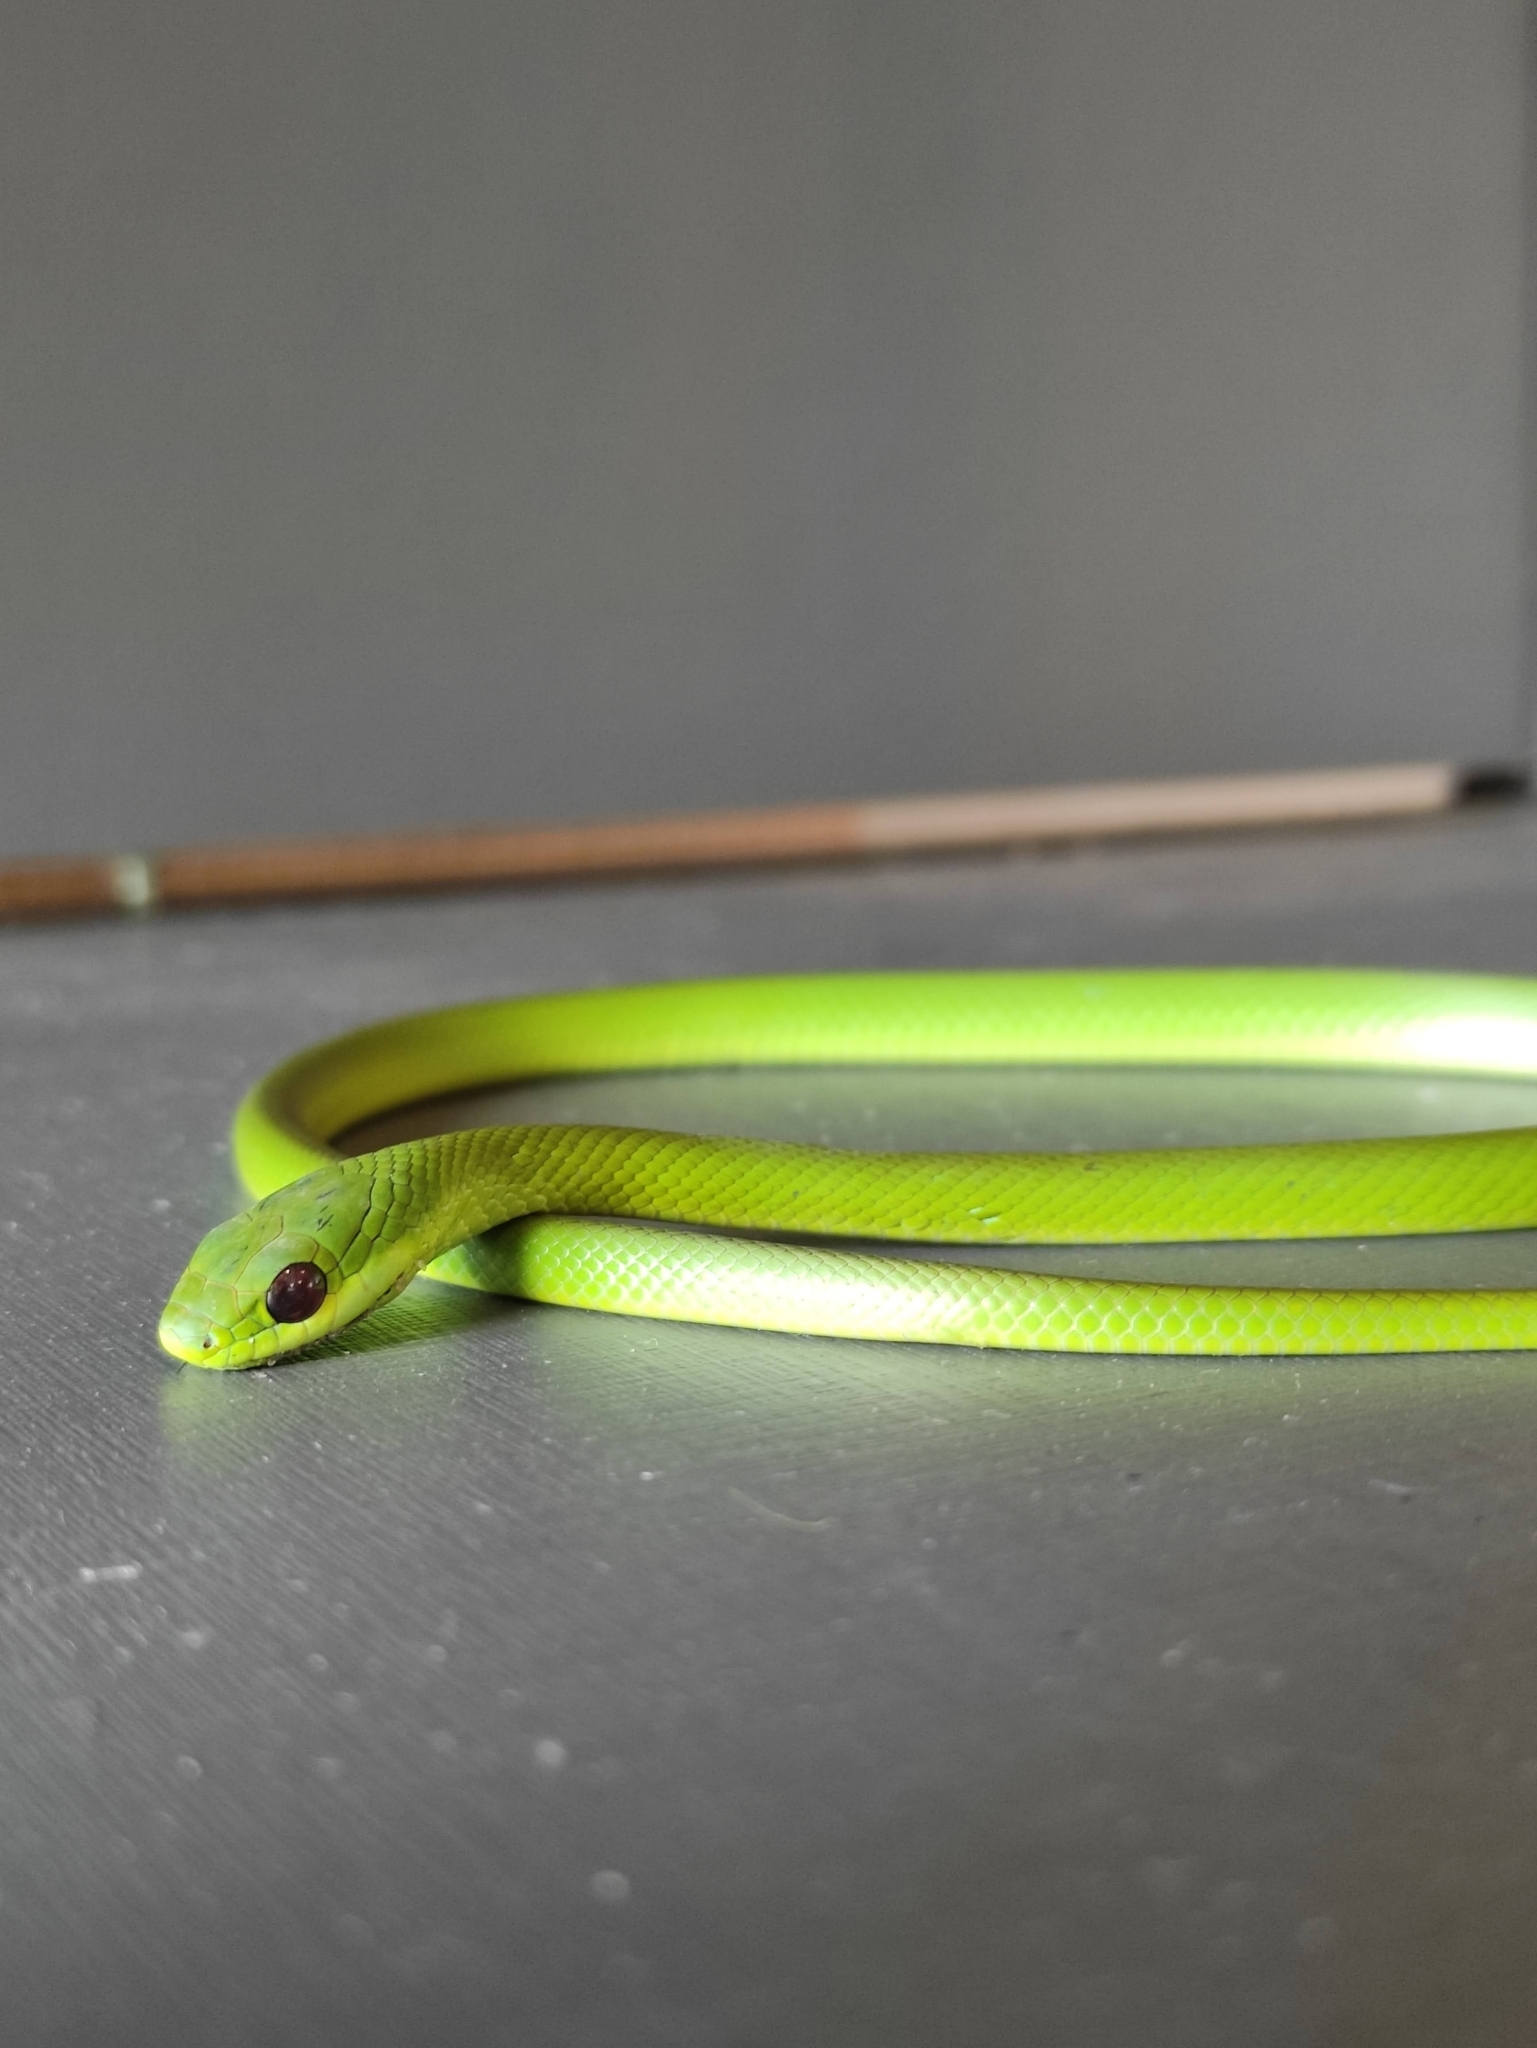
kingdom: Animalia
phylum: Chordata
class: Squamata
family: Colubridae
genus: Philodryas
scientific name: Philodryas olfersii
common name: Lichtenstein's green racer
